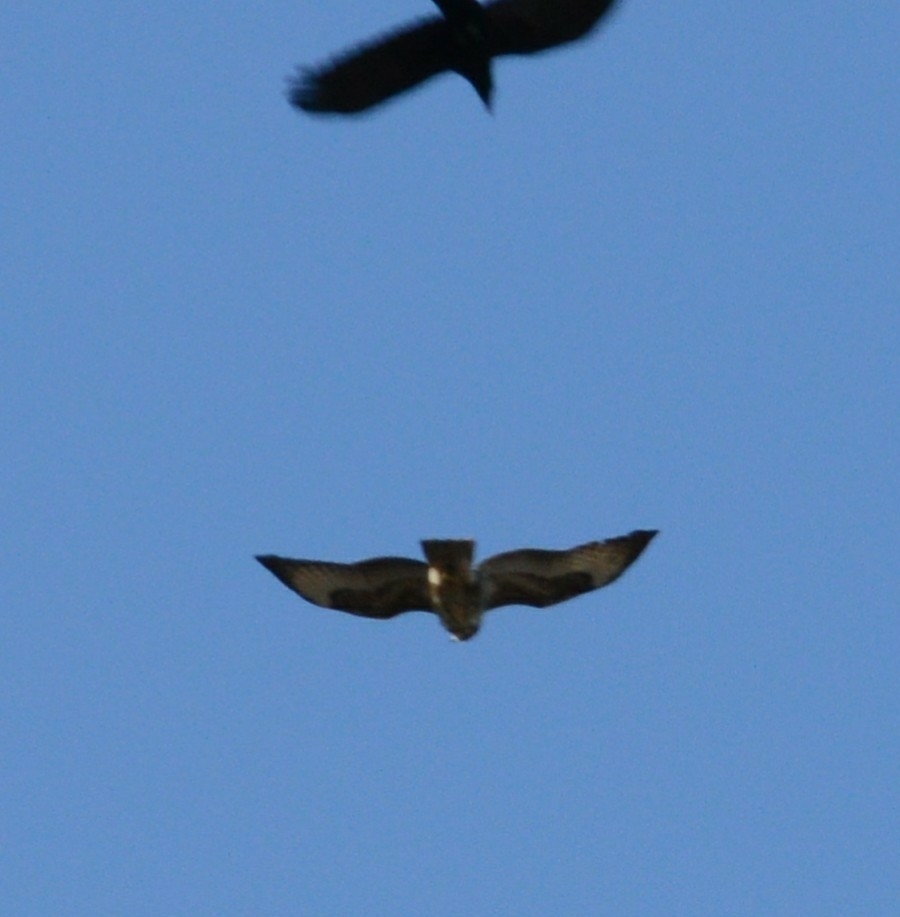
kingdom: Animalia
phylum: Chordata
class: Aves
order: Accipitriformes
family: Accipitridae
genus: Buteo
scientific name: Buteo buteo
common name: Common buzzard
